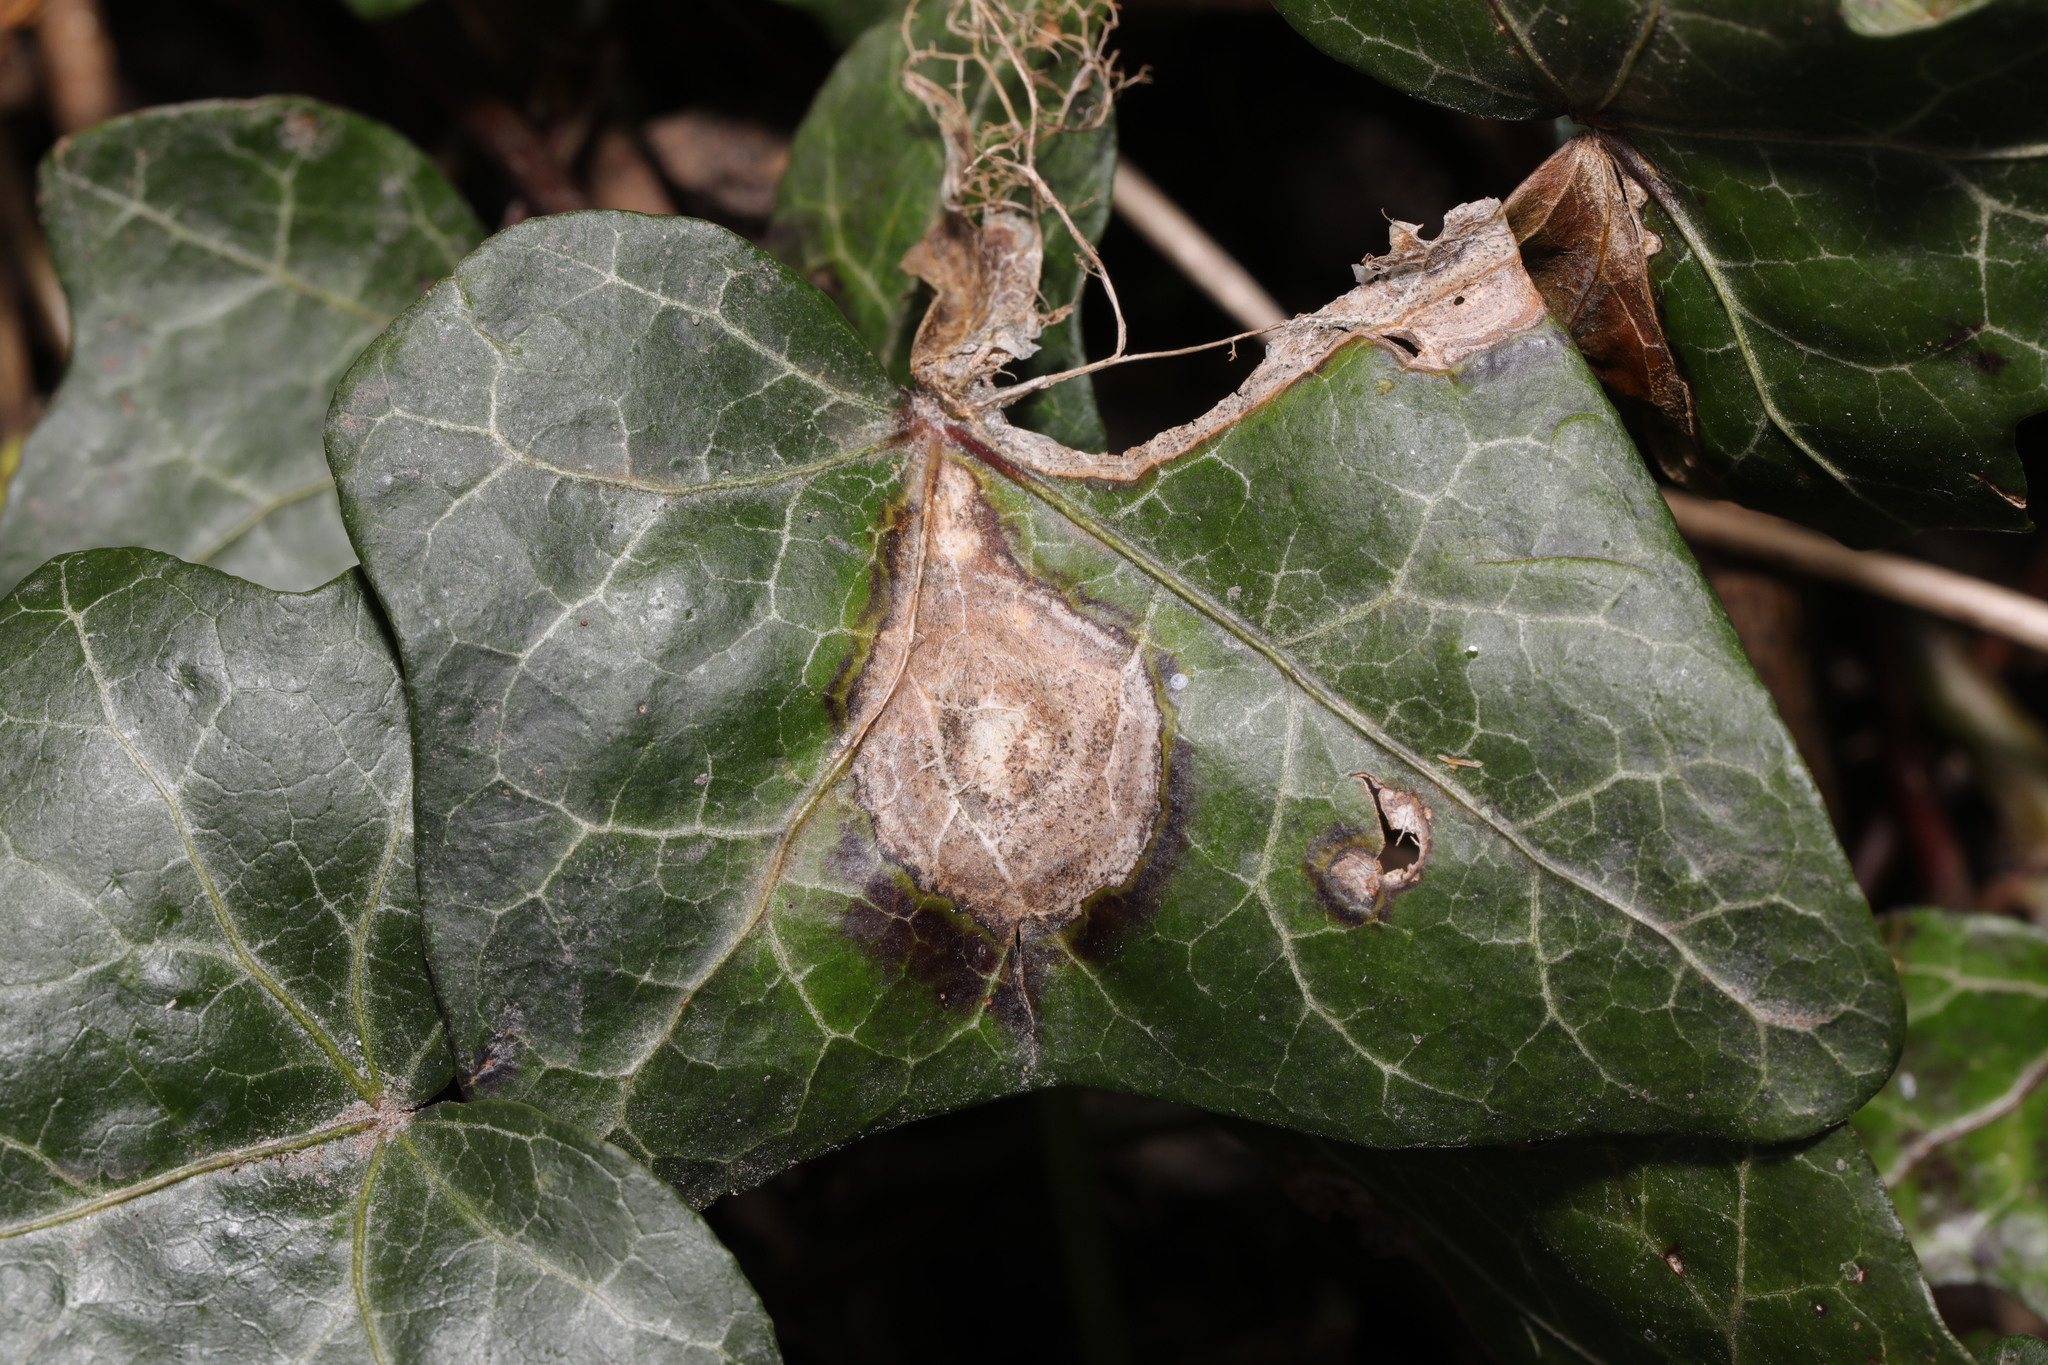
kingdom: Fungi
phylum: Ascomycota
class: Dothideomycetes
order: Pleosporales
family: Didymellaceae
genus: Boeremia
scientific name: Boeremia hedericola
